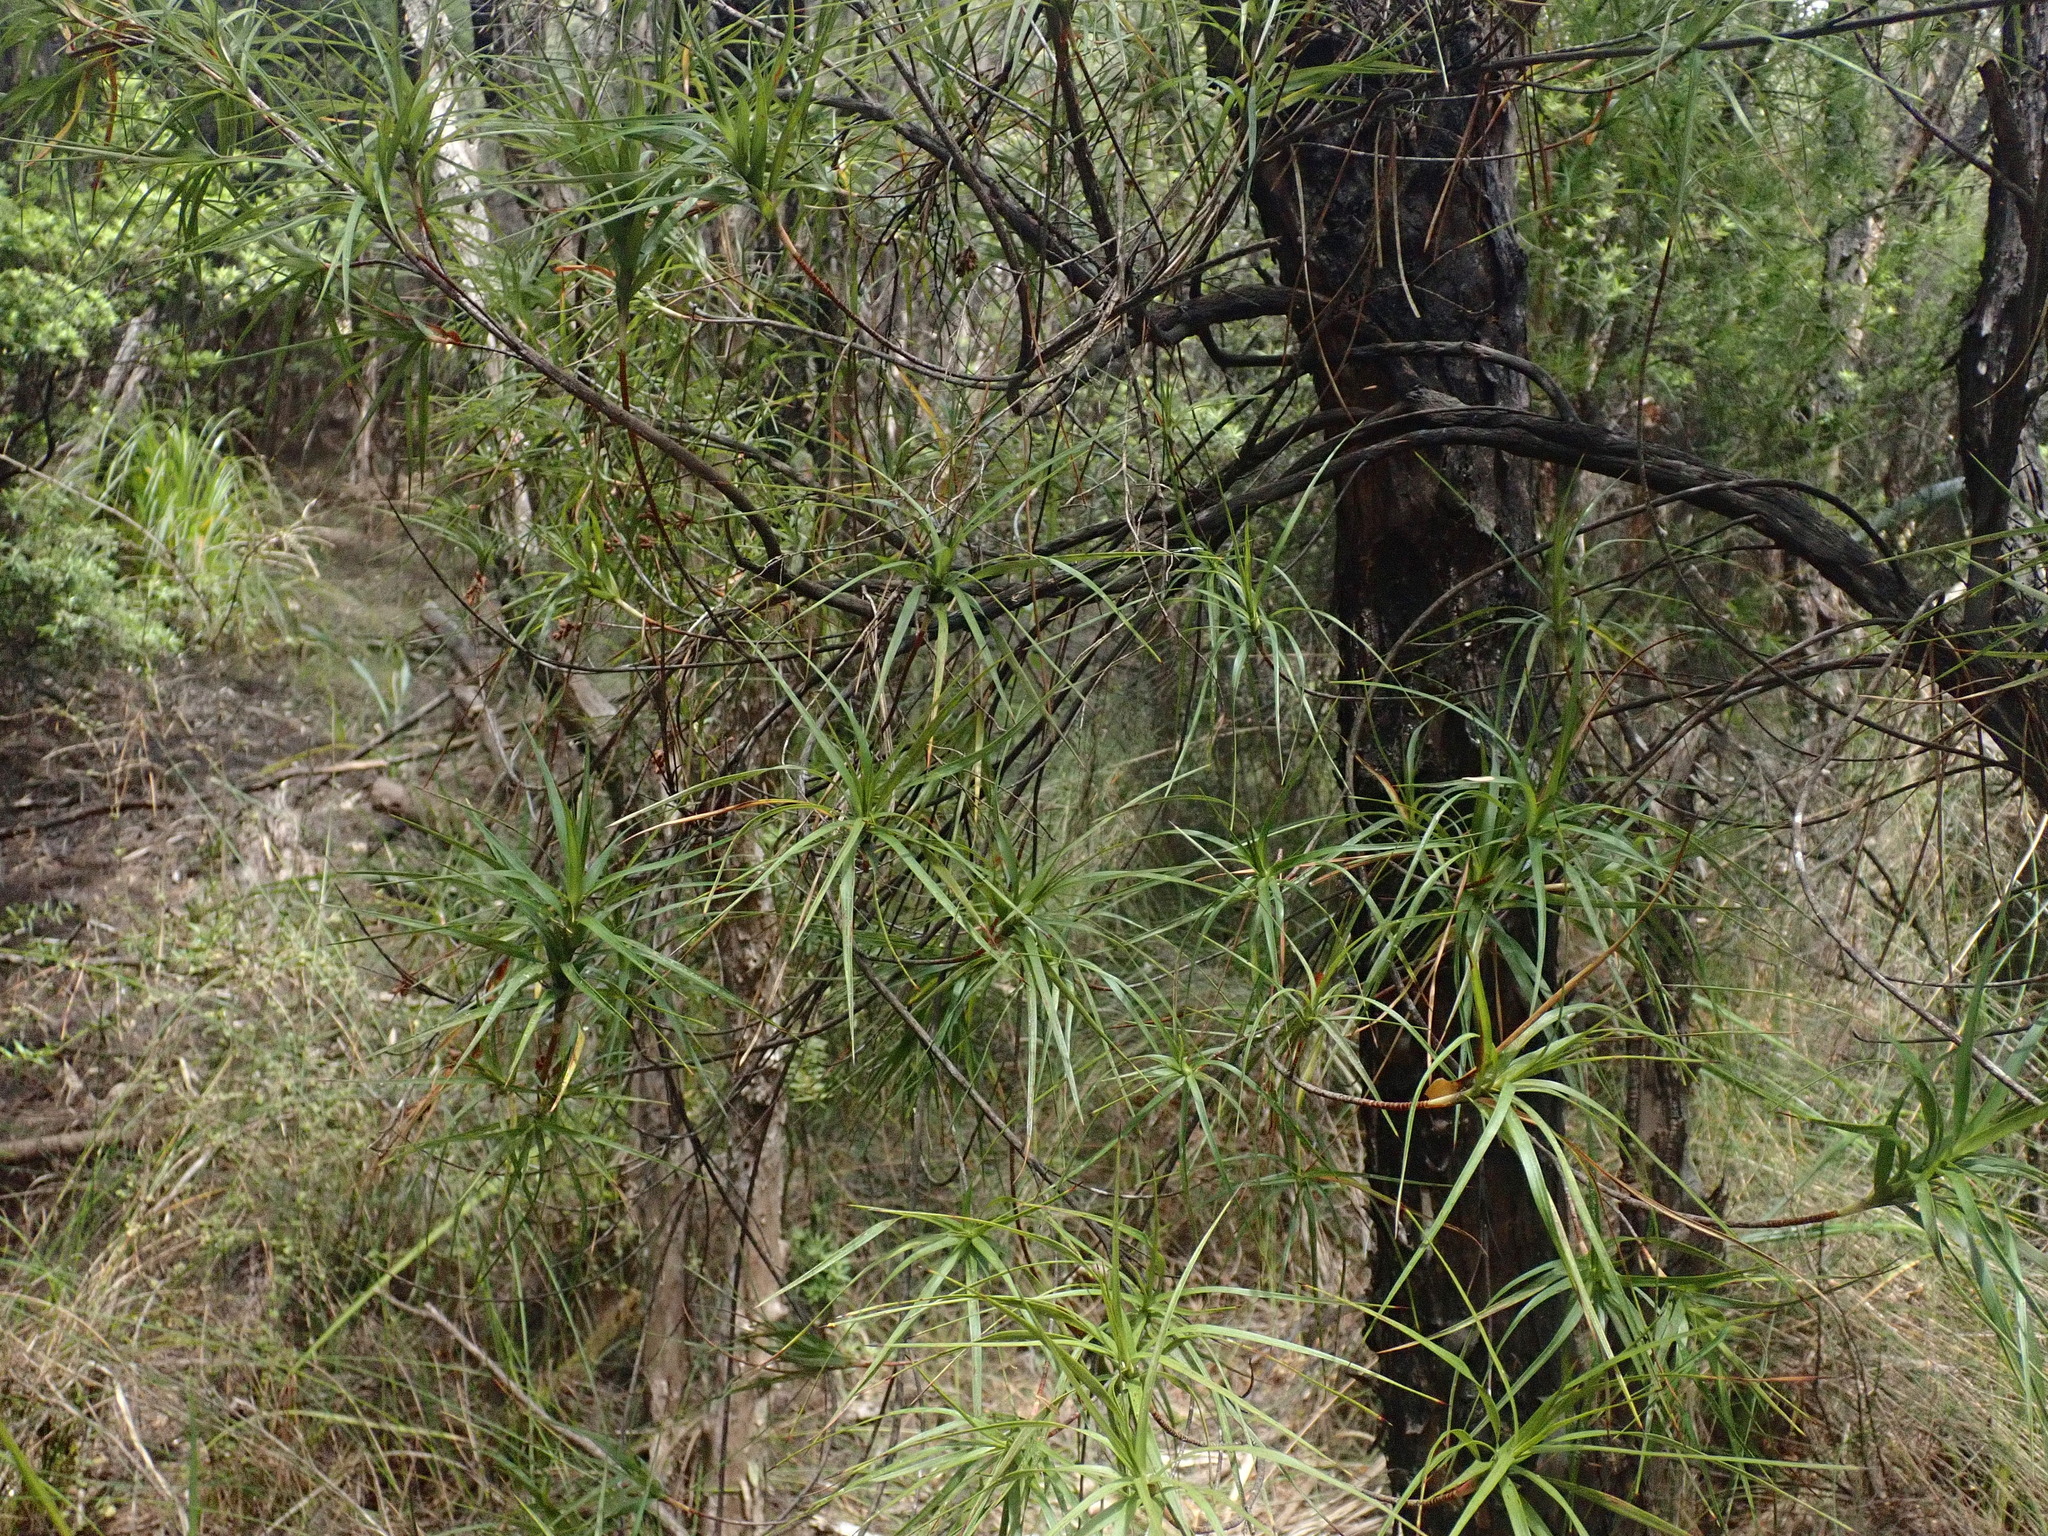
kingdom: Plantae
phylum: Tracheophyta
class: Magnoliopsida
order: Ericales
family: Ericaceae
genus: Dracophyllum
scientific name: Dracophyllum sinclairii
